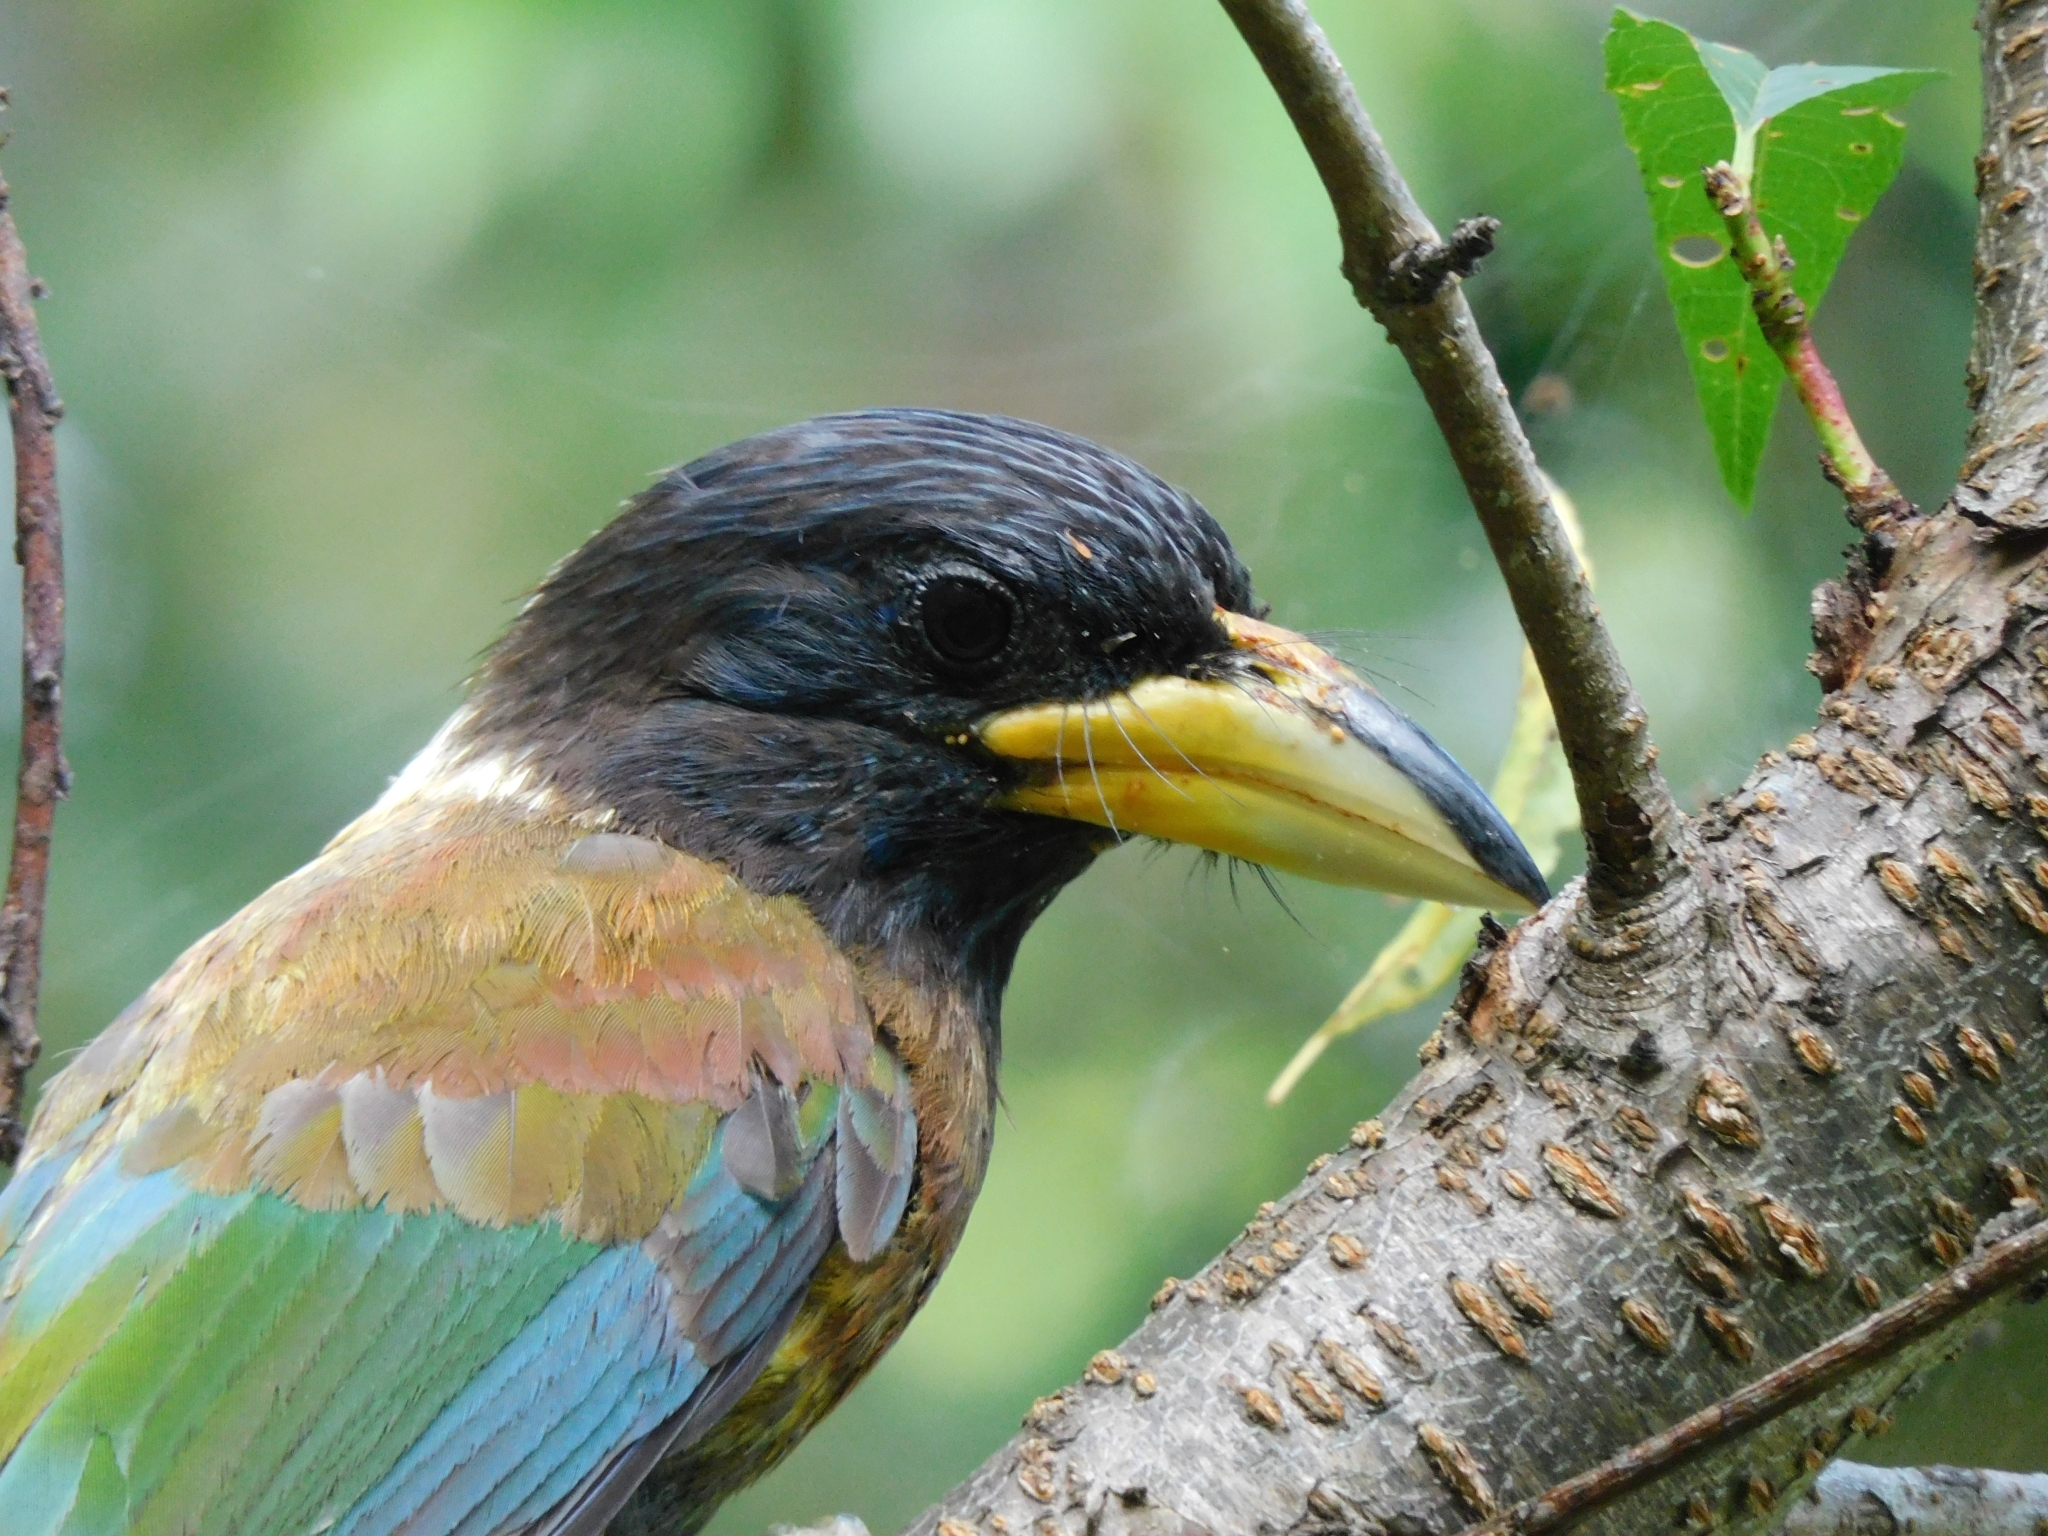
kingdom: Animalia
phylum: Chordata
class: Aves
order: Piciformes
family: Megalaimidae
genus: Psilopogon
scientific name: Psilopogon virens
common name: Great barbet
